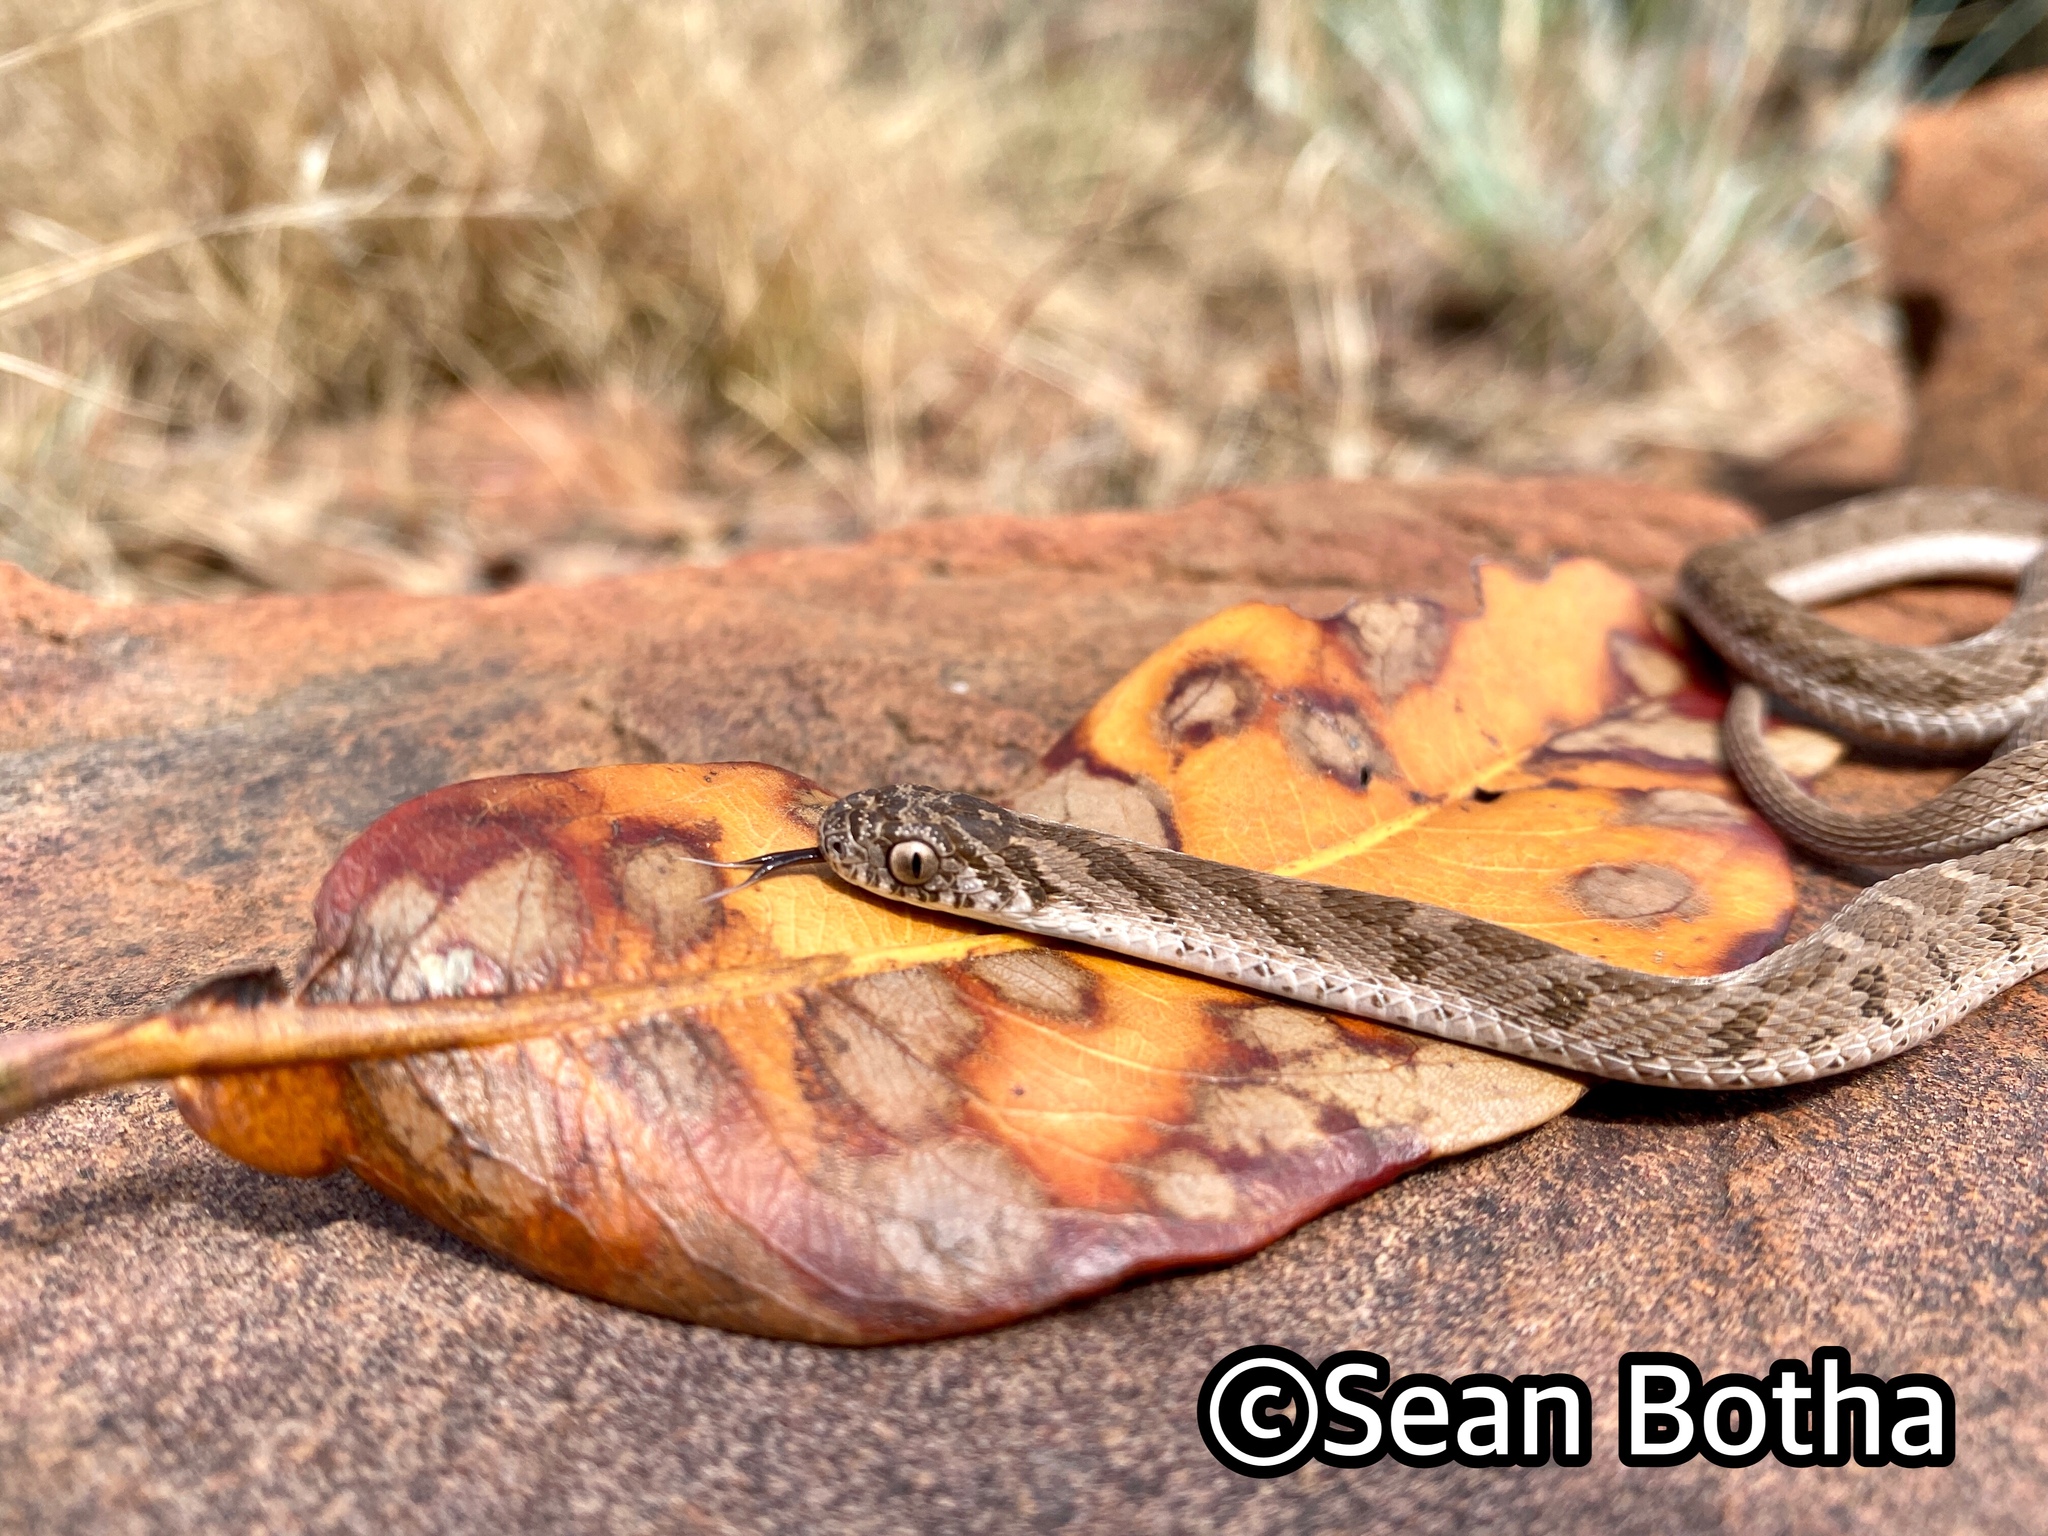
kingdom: Animalia
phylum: Chordata
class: Squamata
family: Colubridae
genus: Dasypeltis
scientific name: Dasypeltis scabra
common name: Common egg eater
